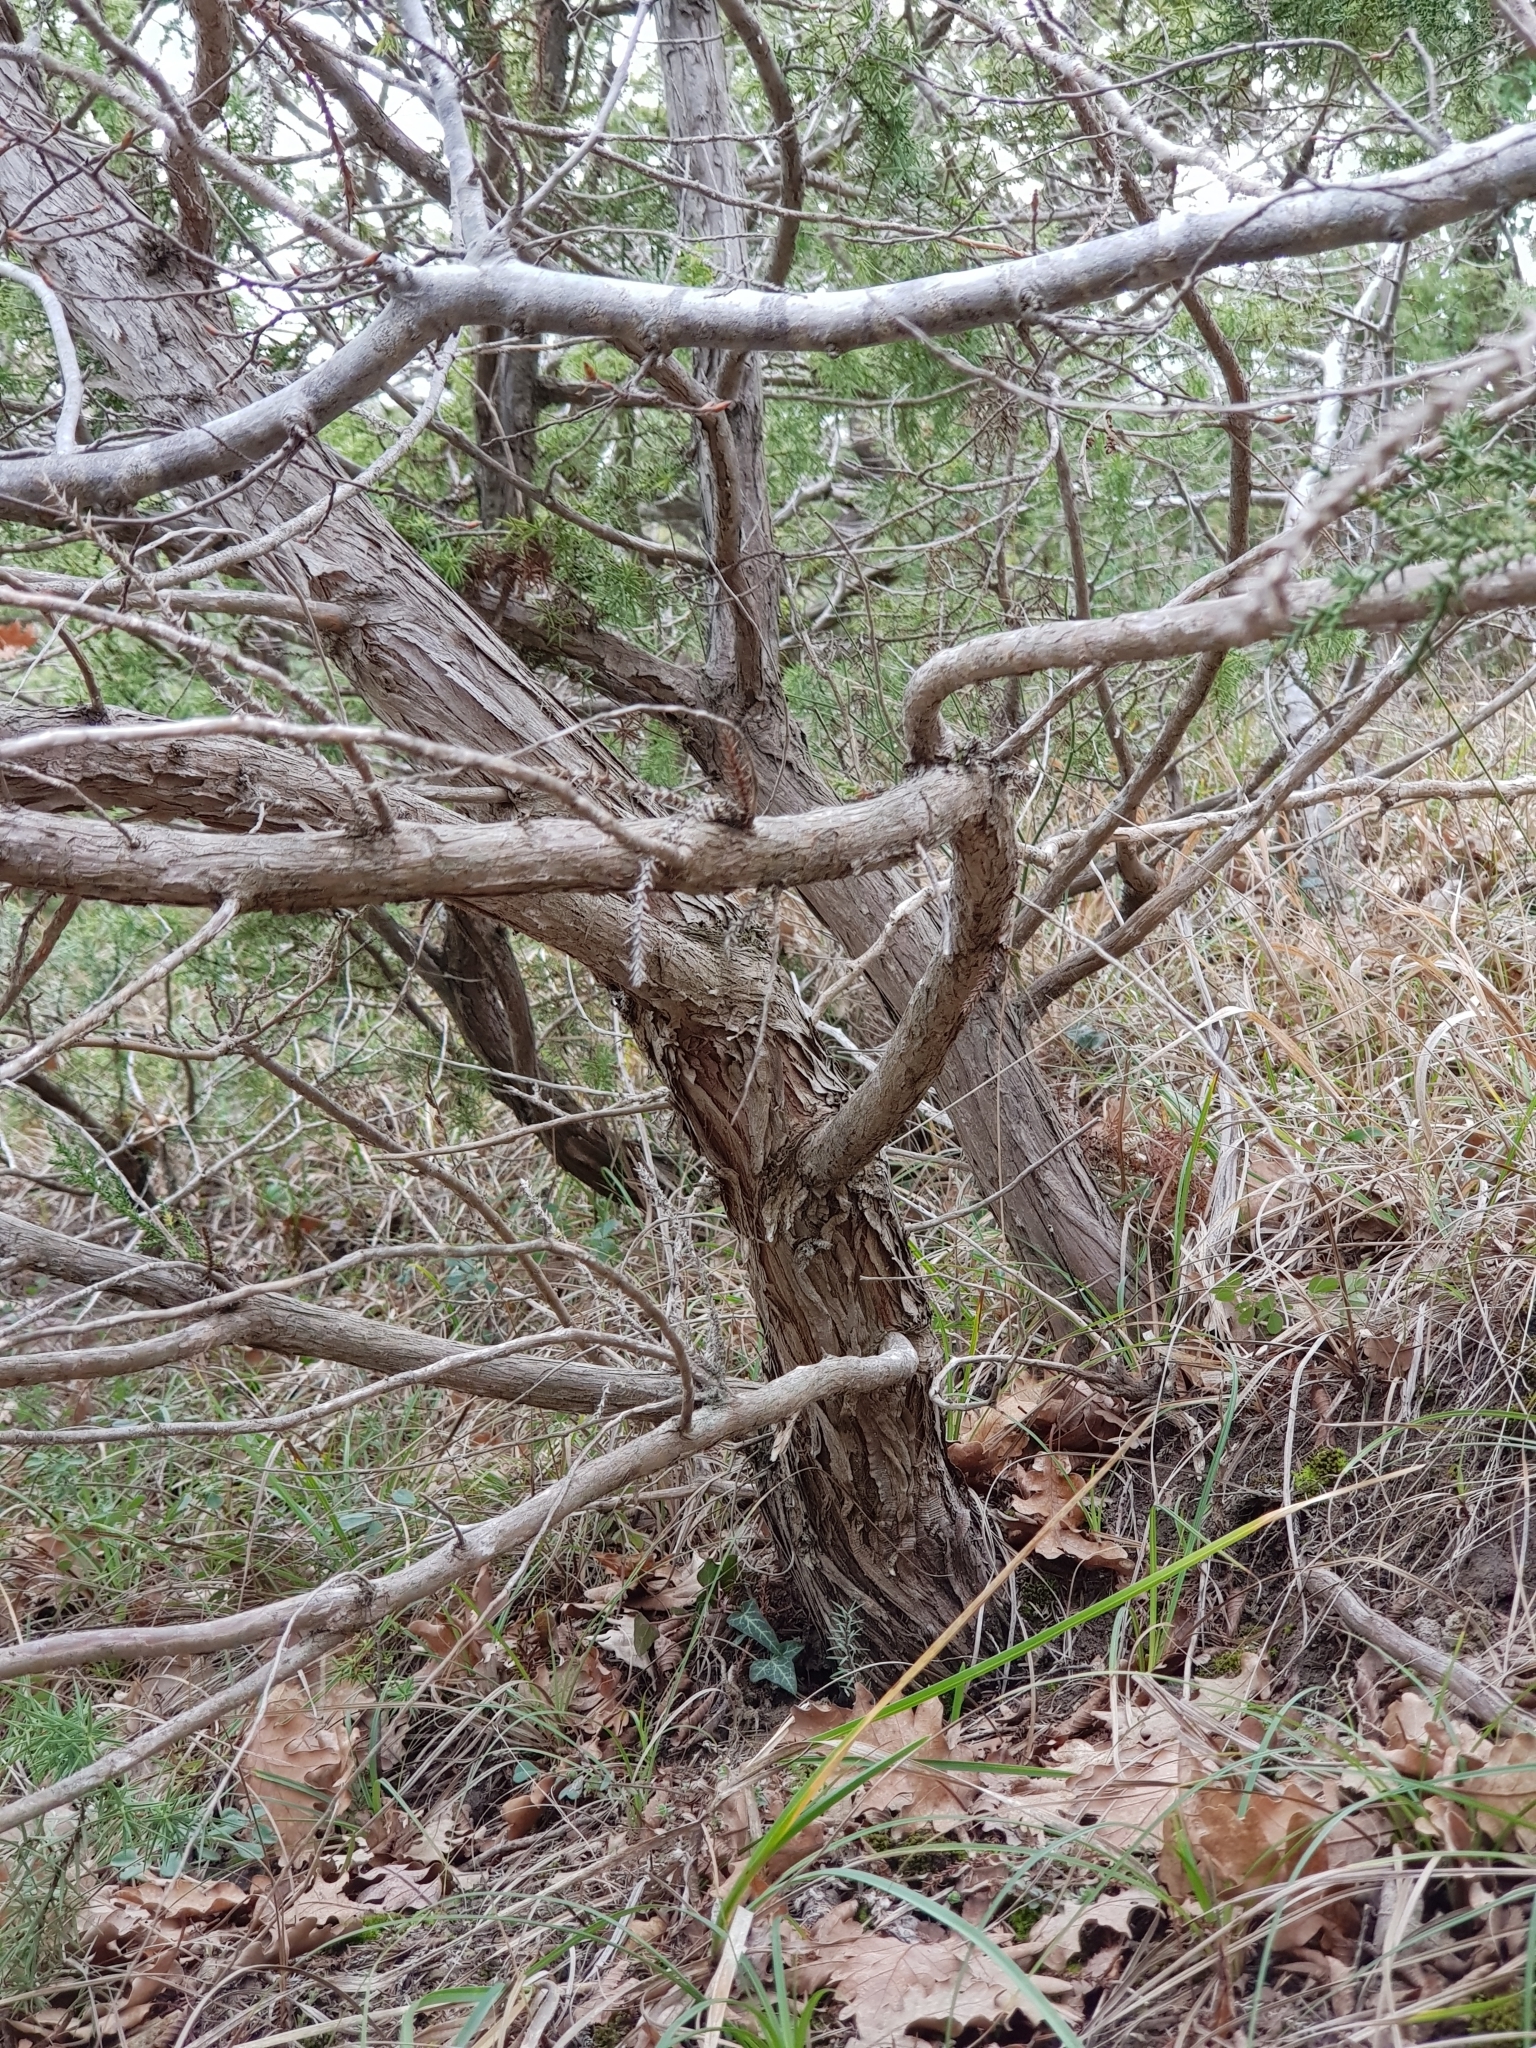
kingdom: Plantae
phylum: Tracheophyta
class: Pinopsida
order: Pinales
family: Cupressaceae
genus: Juniperus
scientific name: Juniperus foetidissima
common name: Stinking juniper
